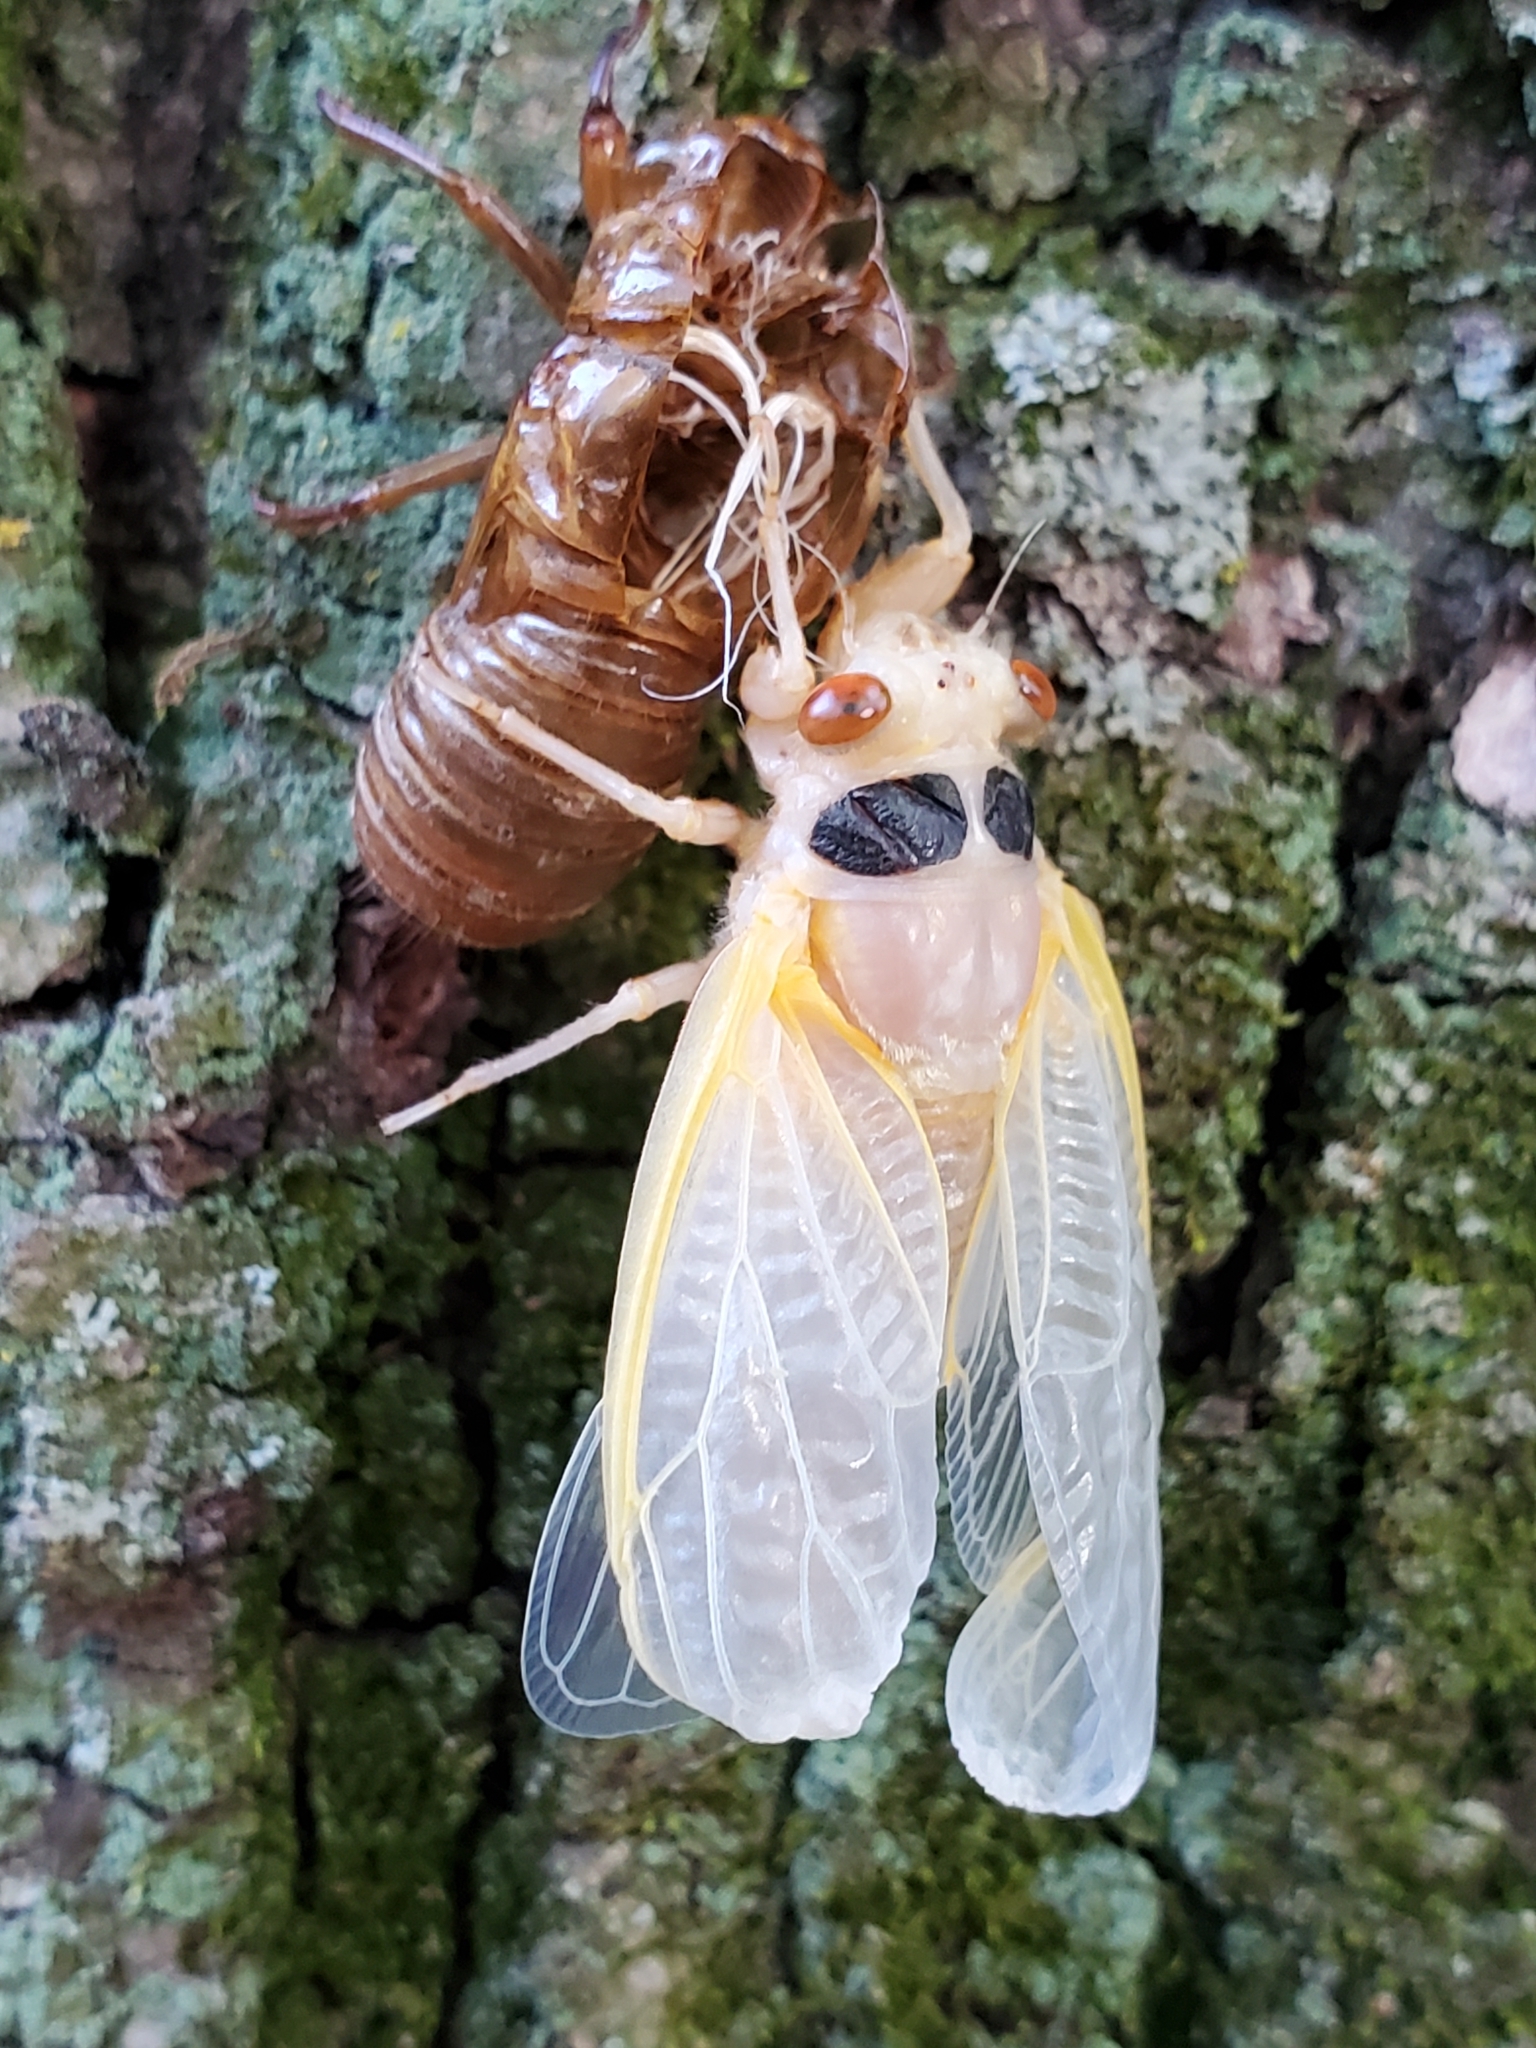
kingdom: Animalia
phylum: Arthropoda
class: Insecta
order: Hemiptera
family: Cicadidae
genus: Magicicada
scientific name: Magicicada
